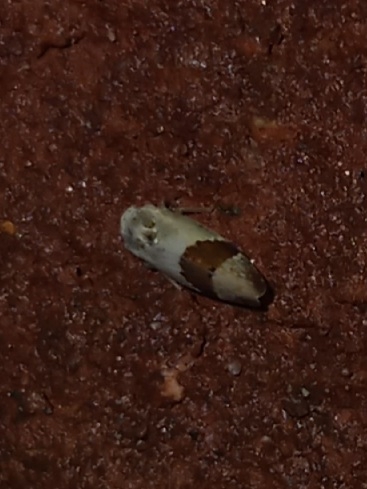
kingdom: Animalia
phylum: Arthropoda
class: Insecta
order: Hemiptera
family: Cicadellidae
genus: Norvellina
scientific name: Norvellina seminuda
